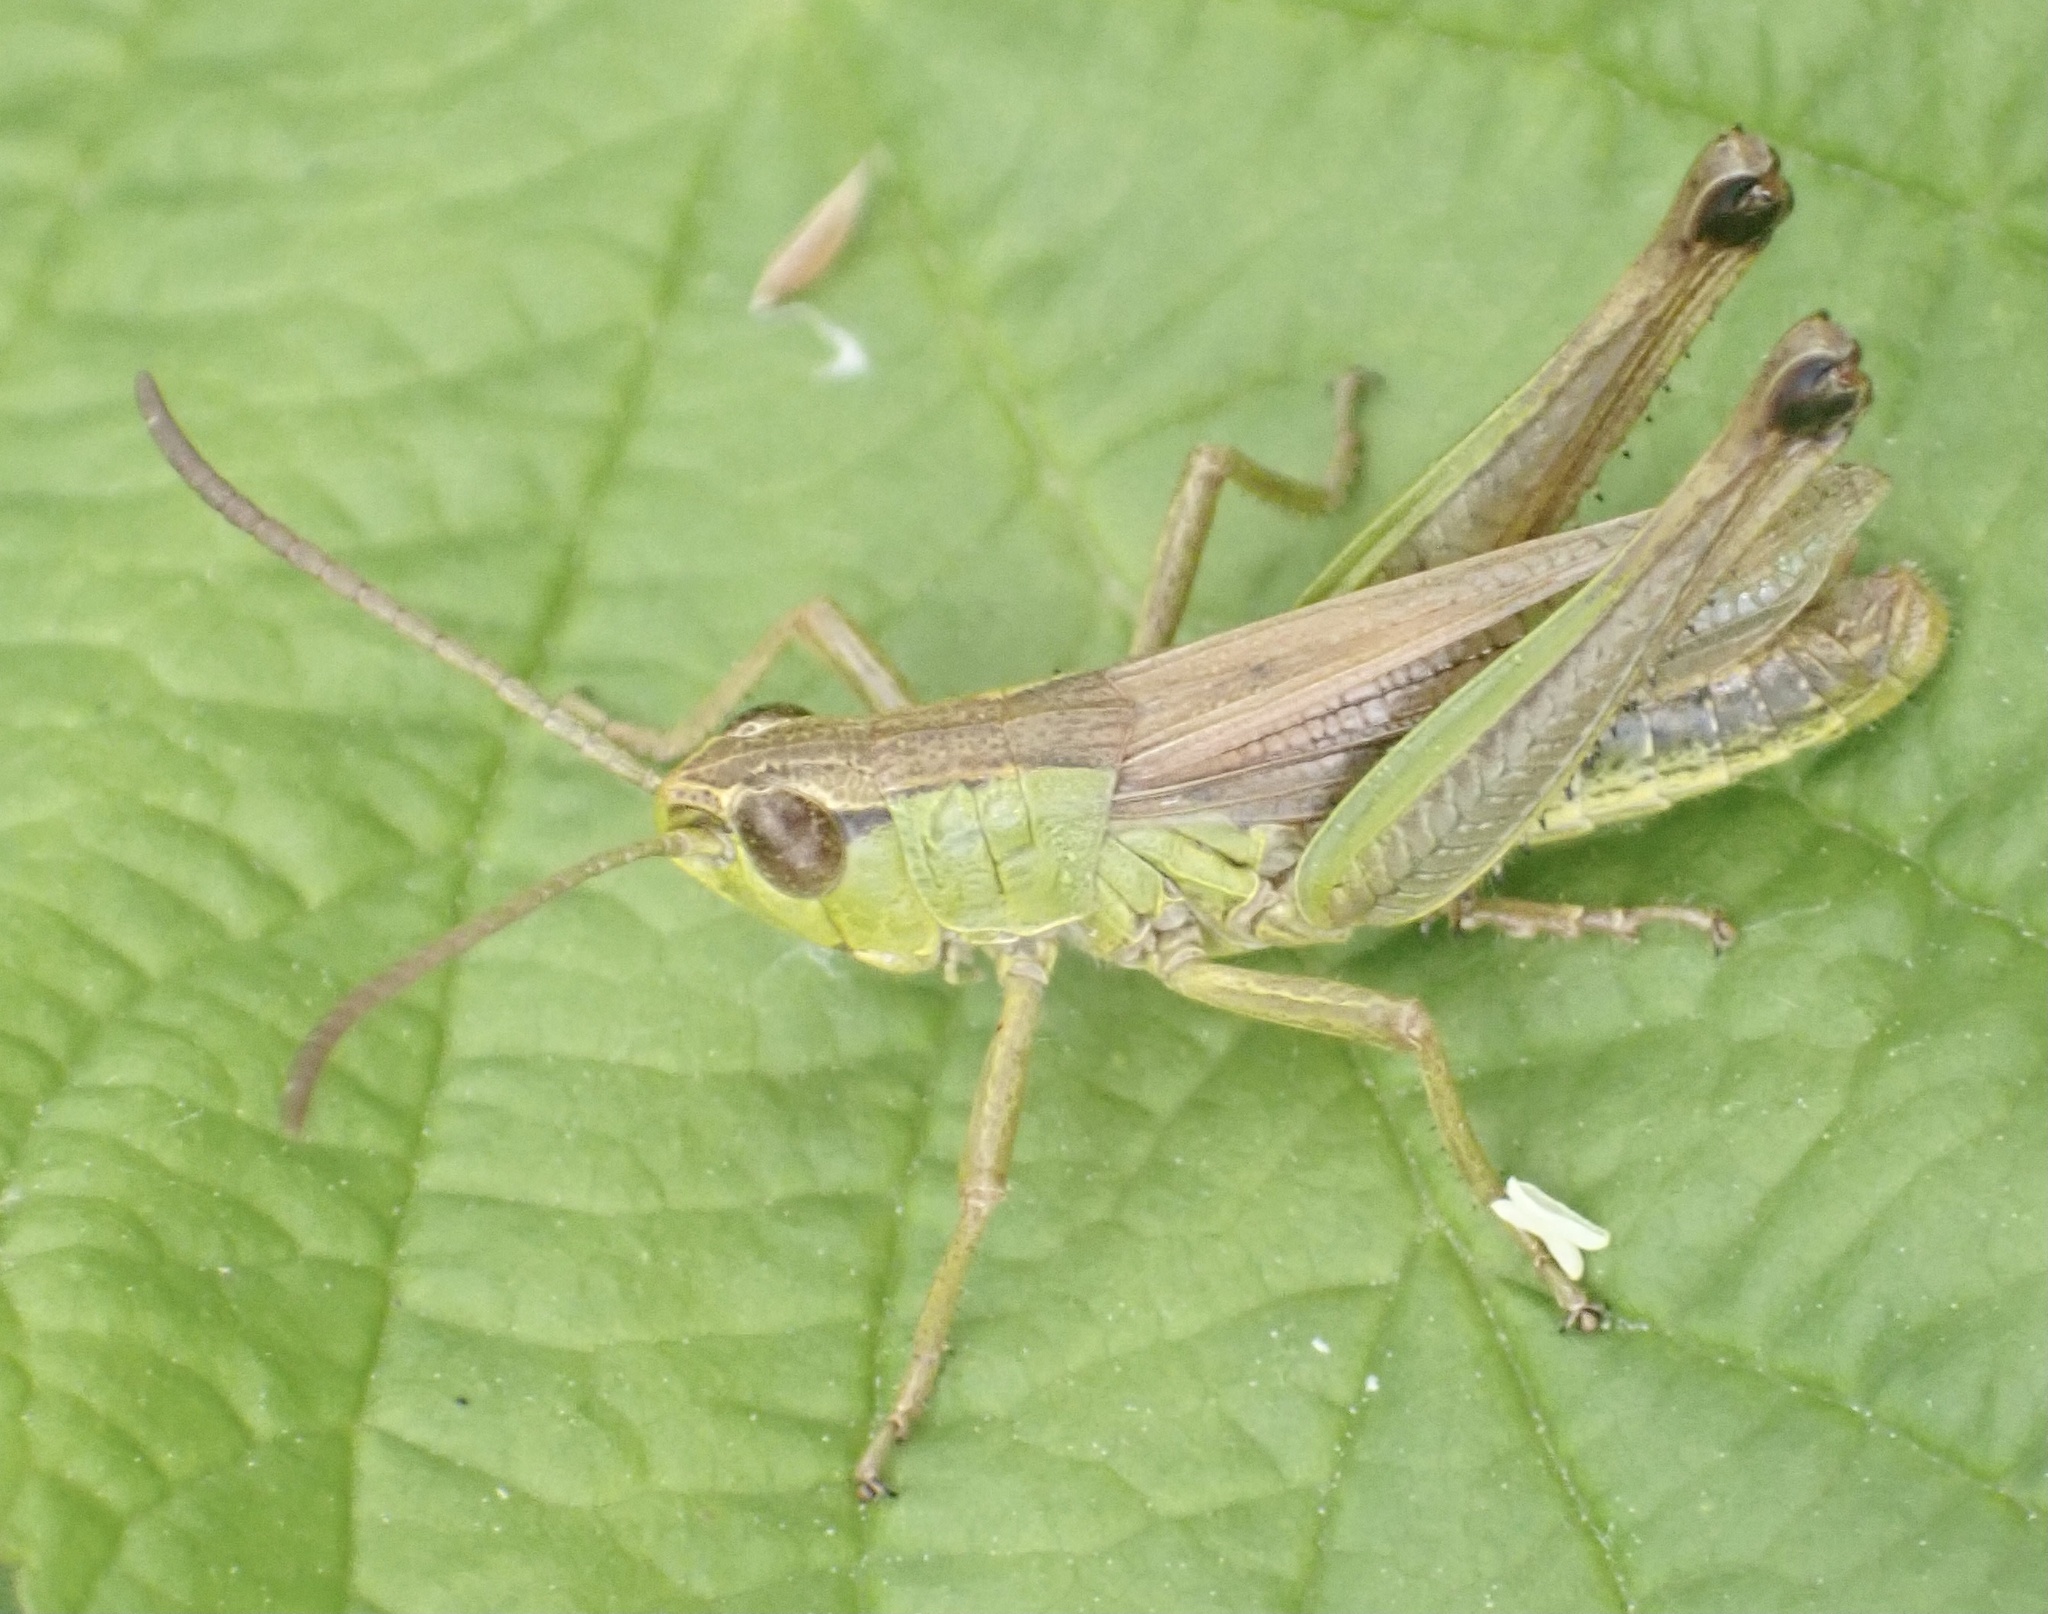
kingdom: Animalia
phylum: Arthropoda
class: Insecta
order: Orthoptera
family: Acrididae
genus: Pseudochorthippus
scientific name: Pseudochorthippus parallelus
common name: Meadow grasshopper
